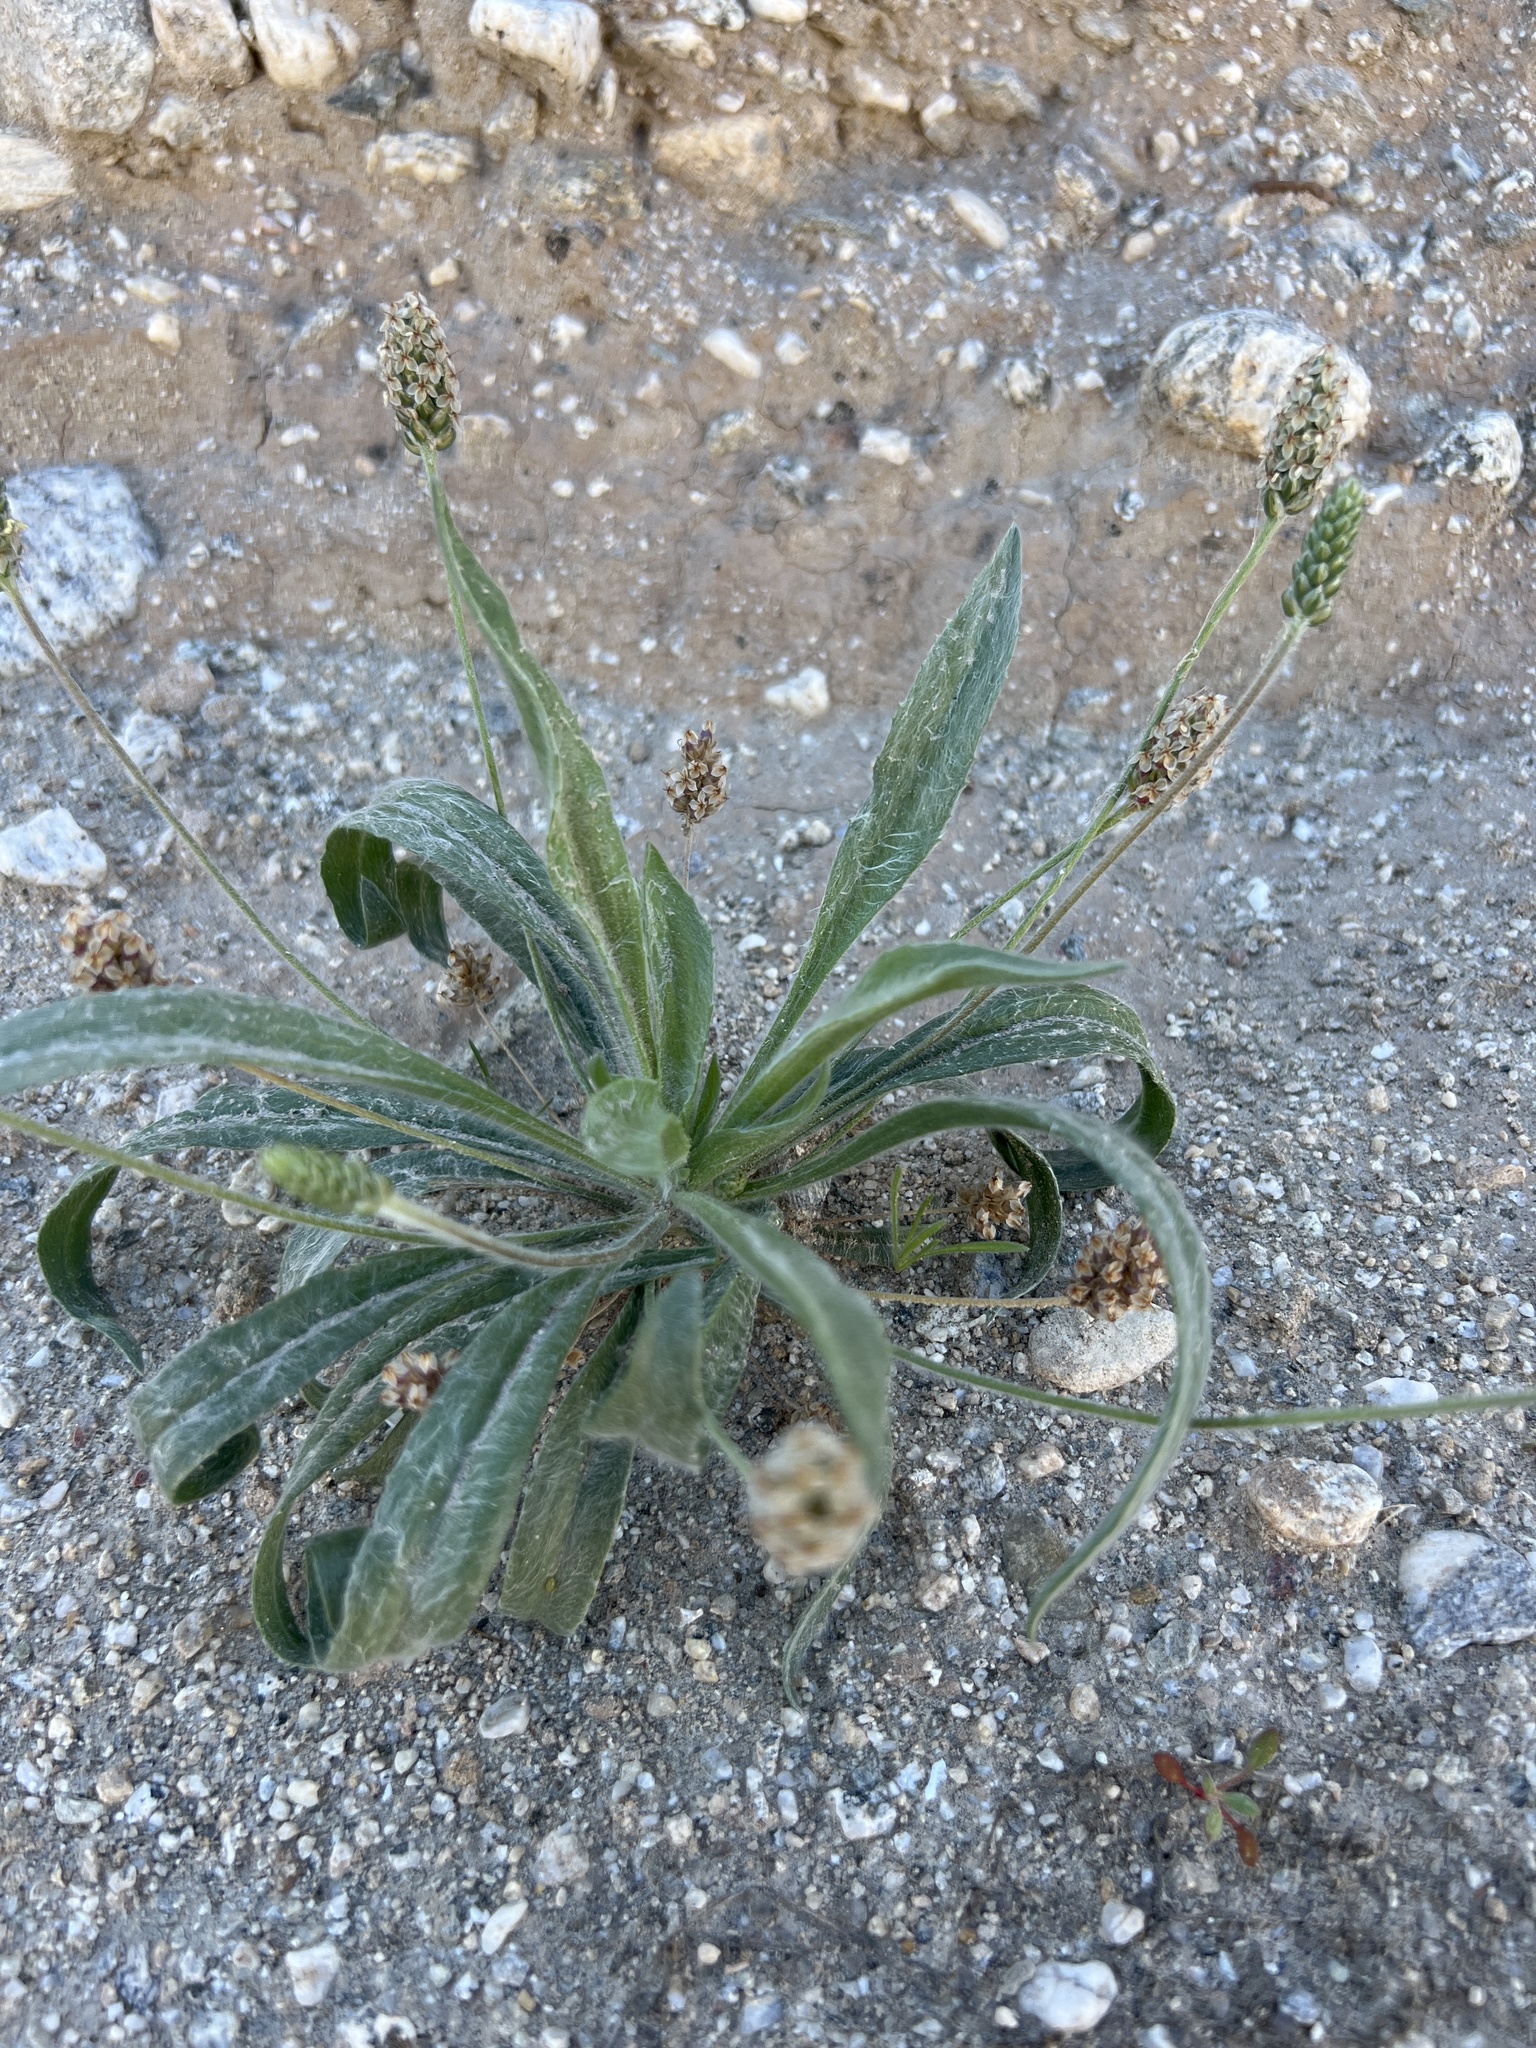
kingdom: Plantae
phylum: Tracheophyta
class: Magnoliopsida
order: Lamiales
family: Plantaginaceae
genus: Plantago
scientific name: Plantago ovata
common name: Blond plantain
